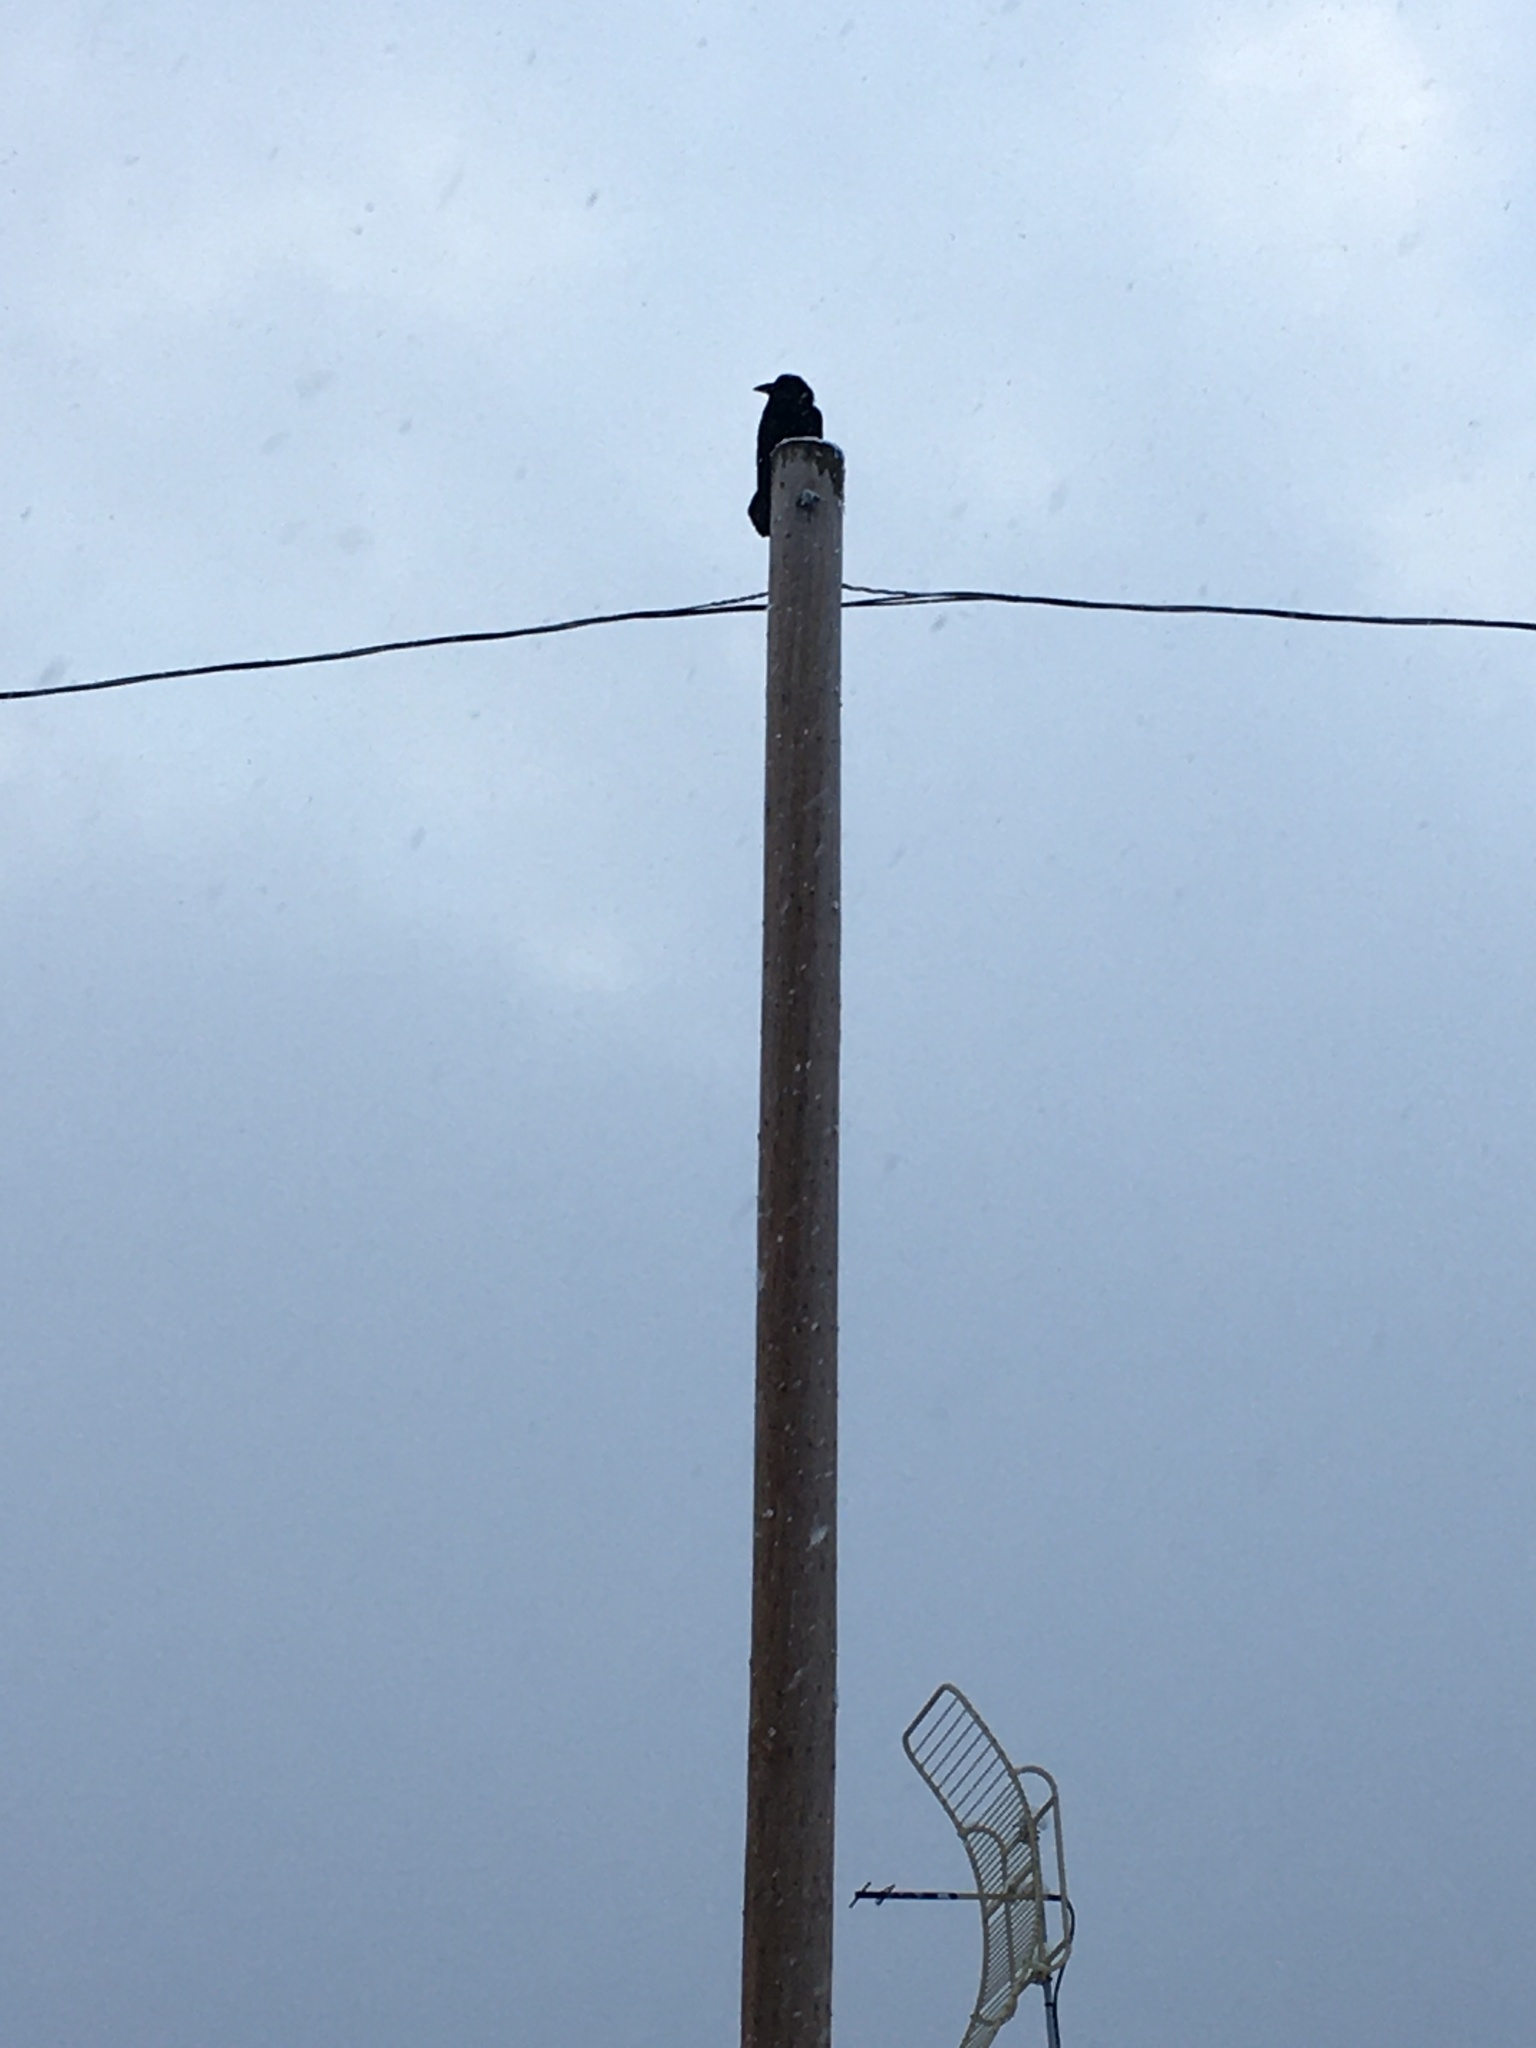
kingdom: Animalia
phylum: Chordata
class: Aves
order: Passeriformes
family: Corvidae
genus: Corvus
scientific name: Corvus corax
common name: Common raven
